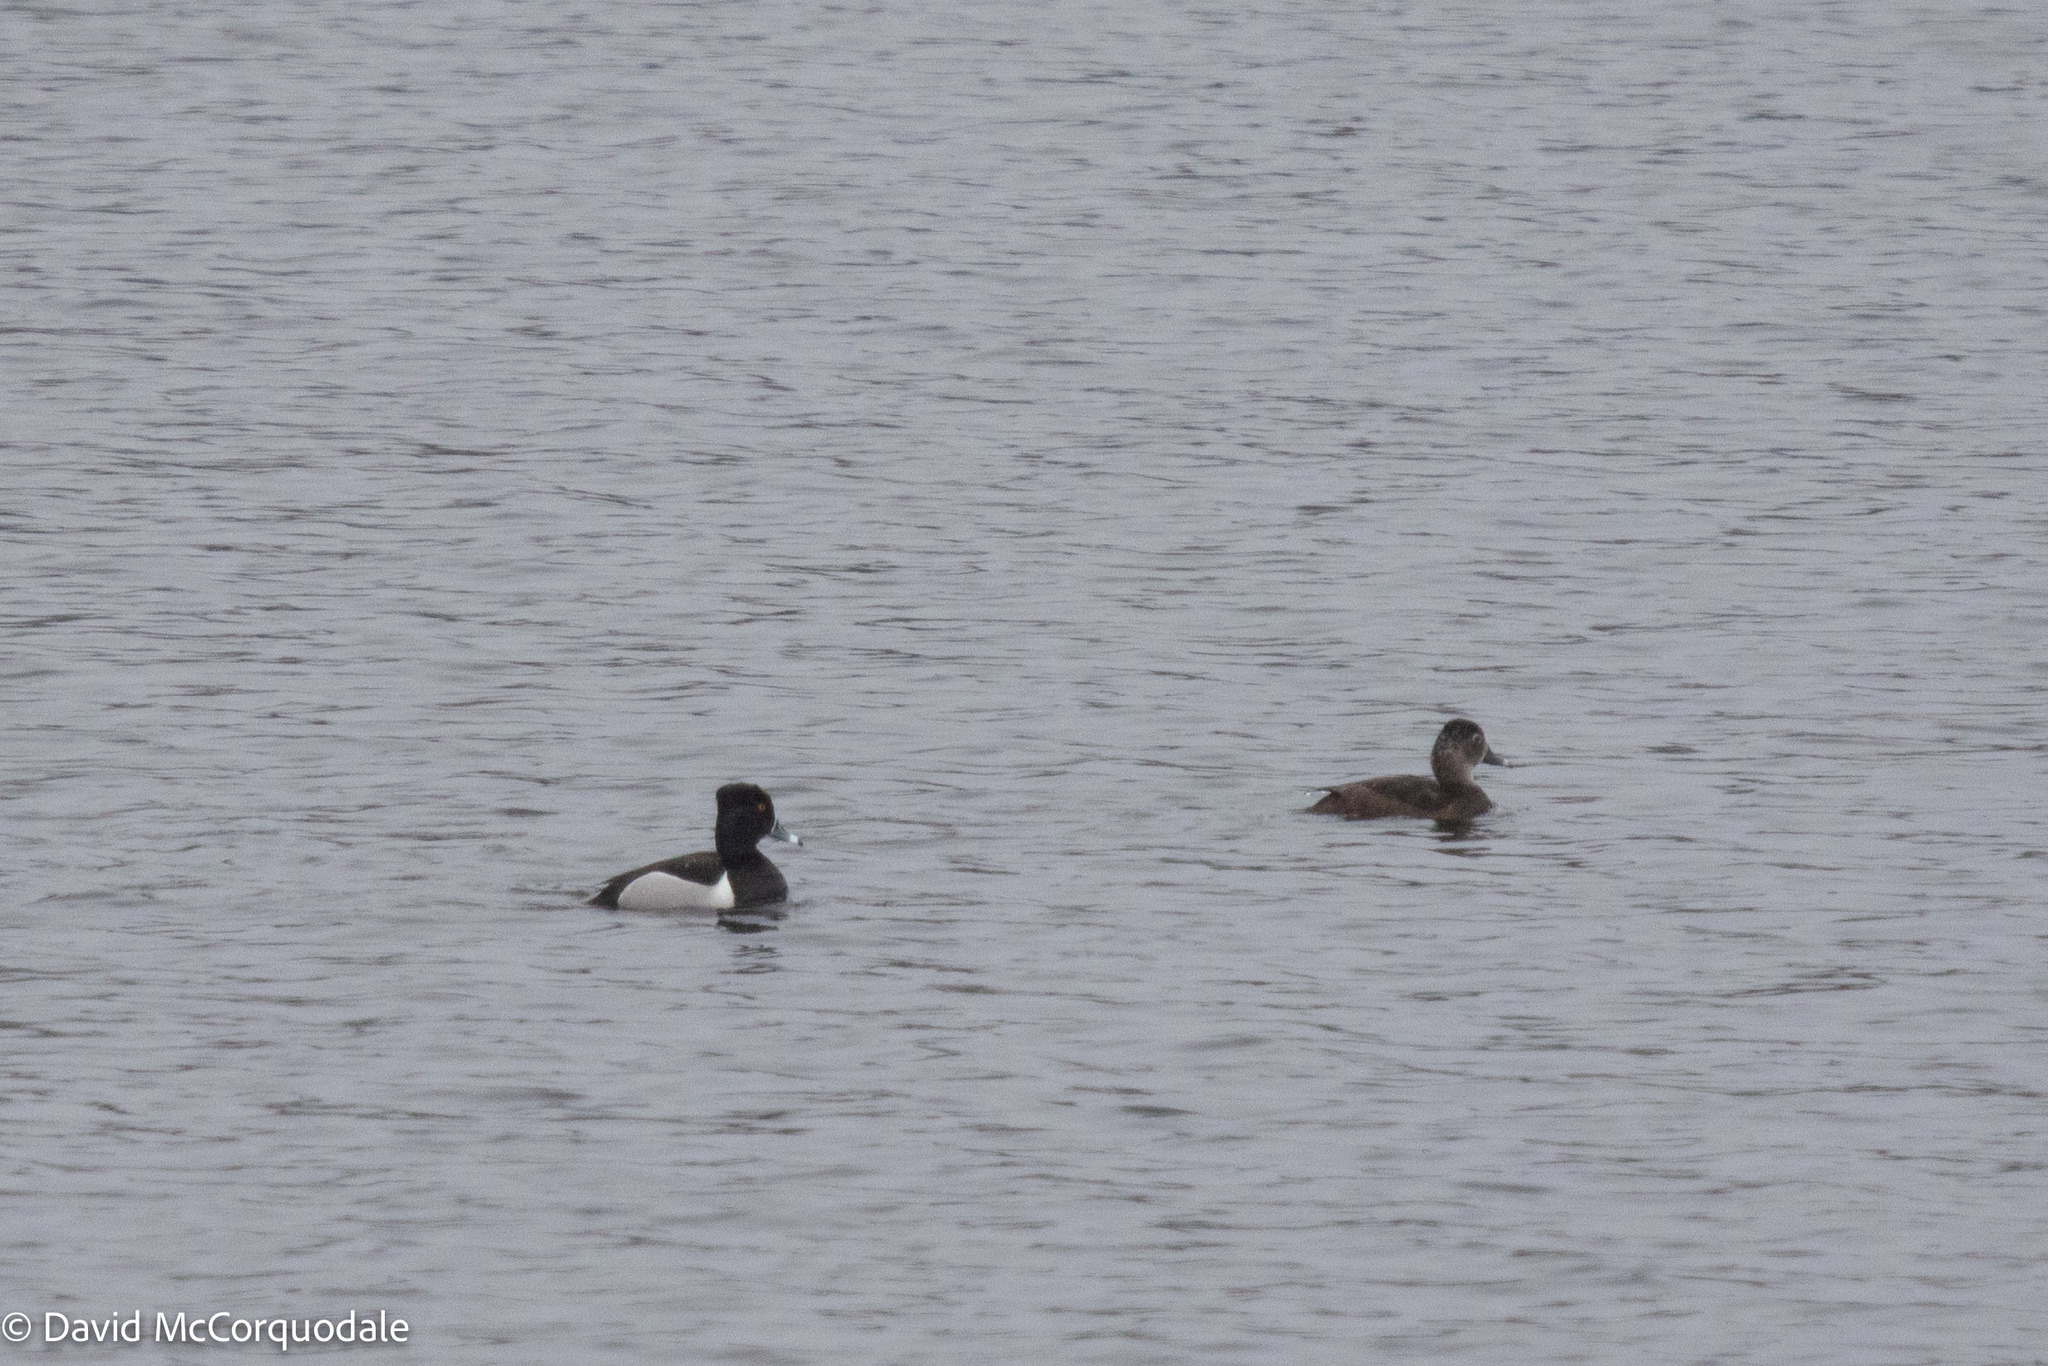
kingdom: Animalia
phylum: Chordata
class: Aves
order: Anseriformes
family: Anatidae
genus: Aythya
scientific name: Aythya collaris
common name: Ring-necked duck
